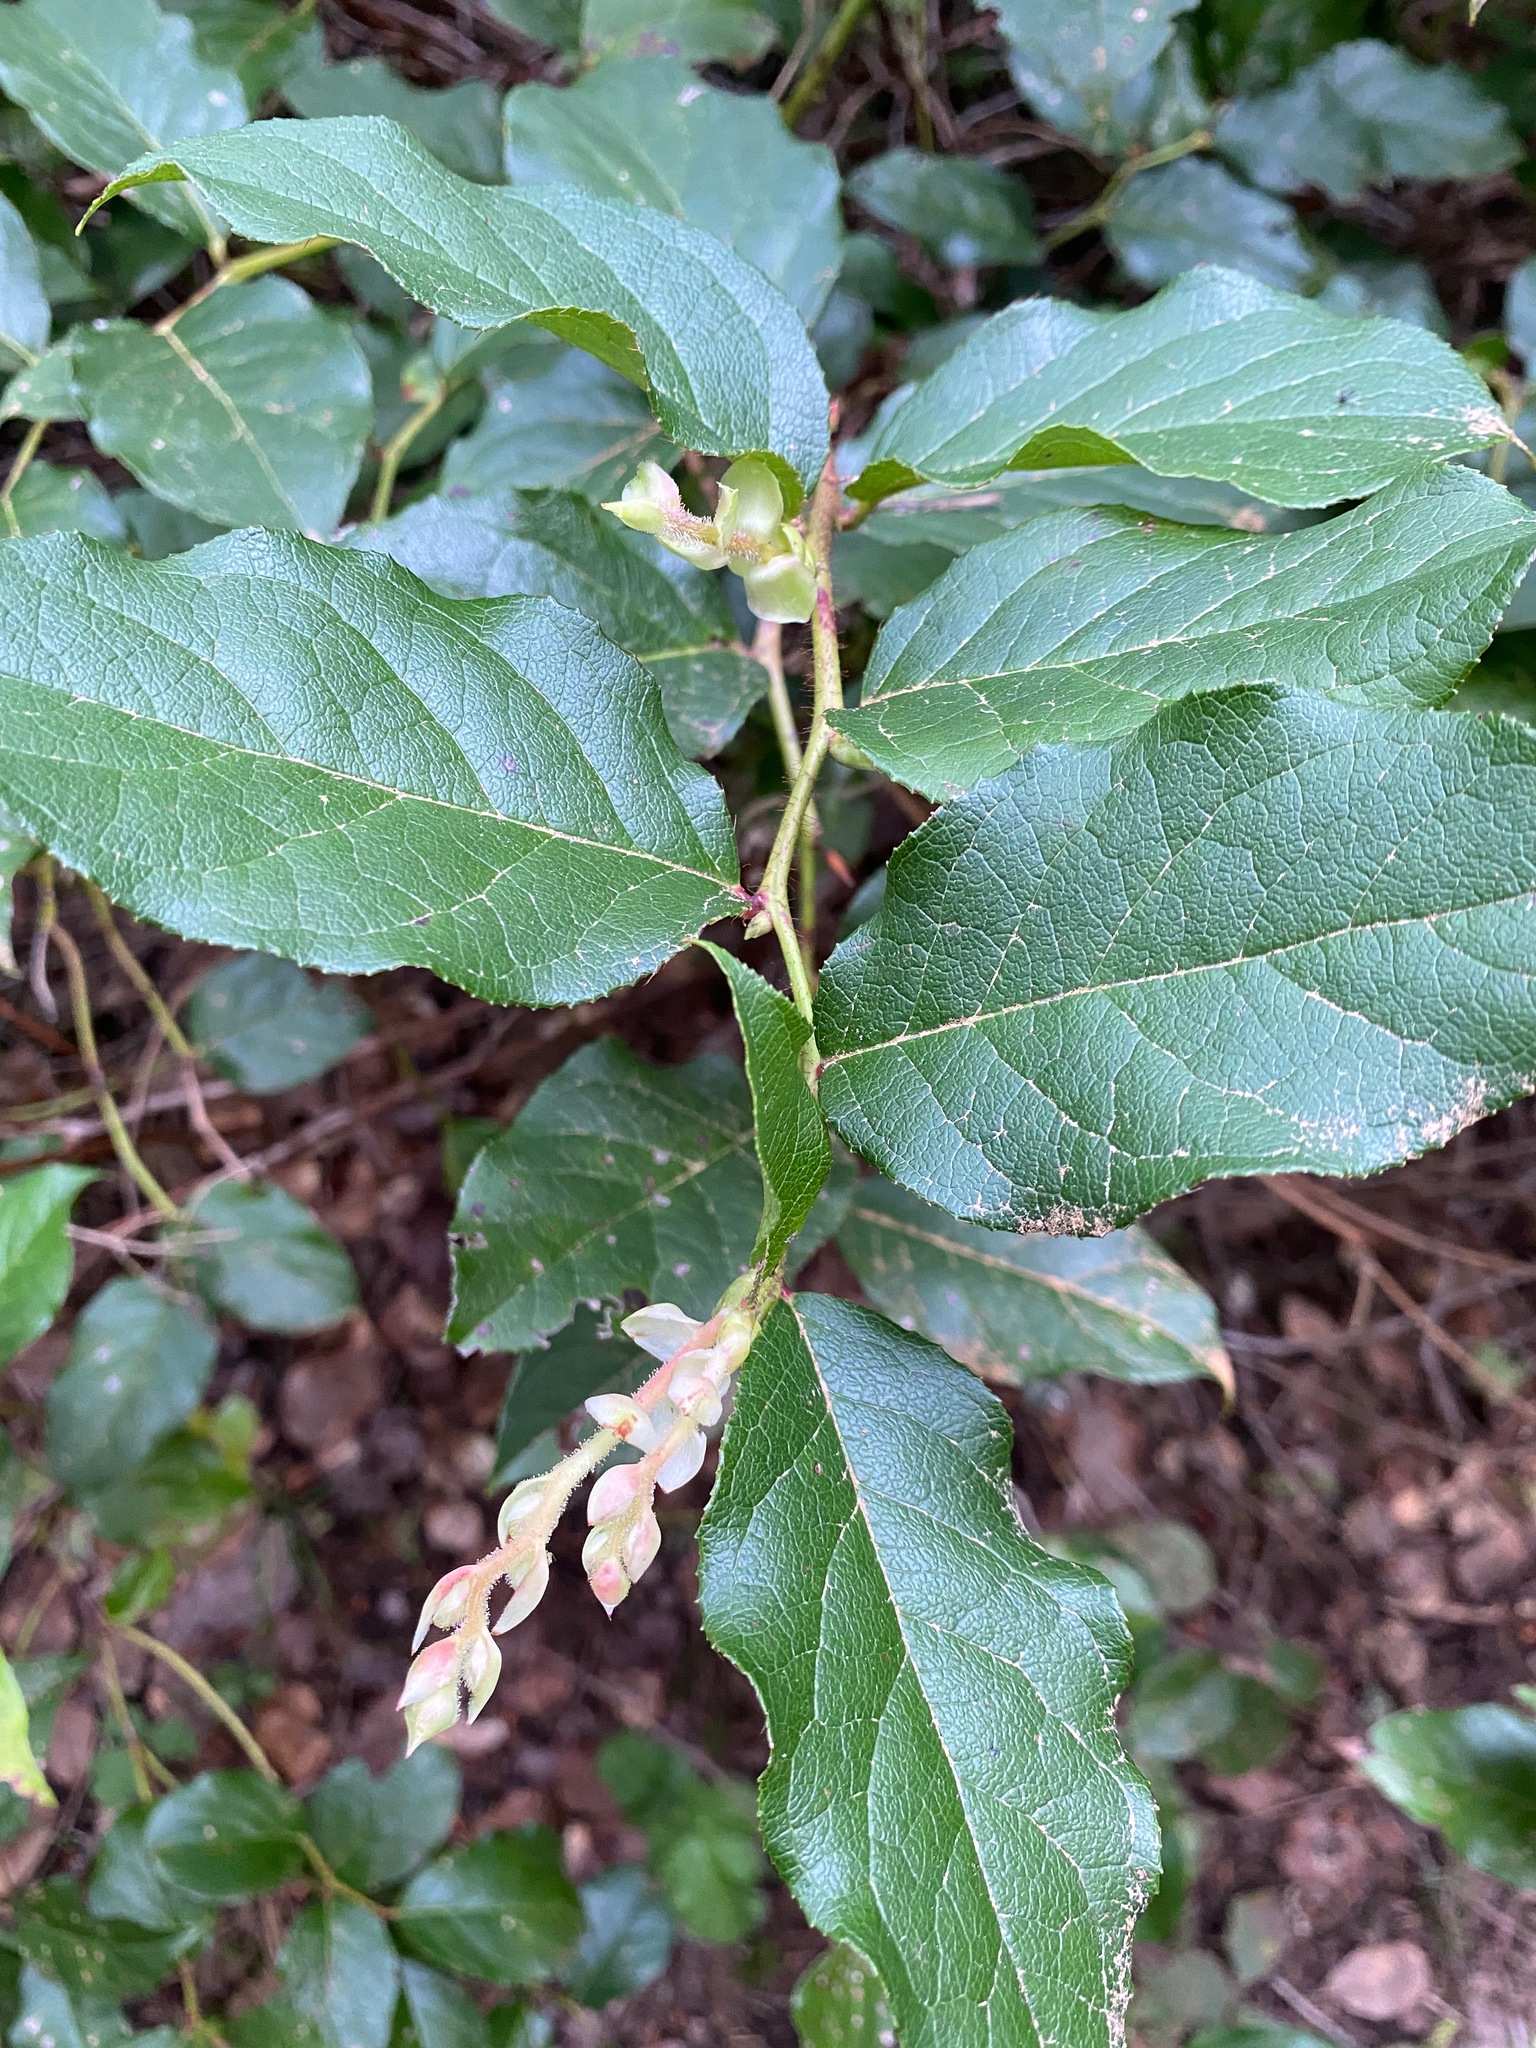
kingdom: Plantae
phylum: Tracheophyta
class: Magnoliopsida
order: Ericales
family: Ericaceae
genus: Gaultheria
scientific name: Gaultheria shallon
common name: Shallon
